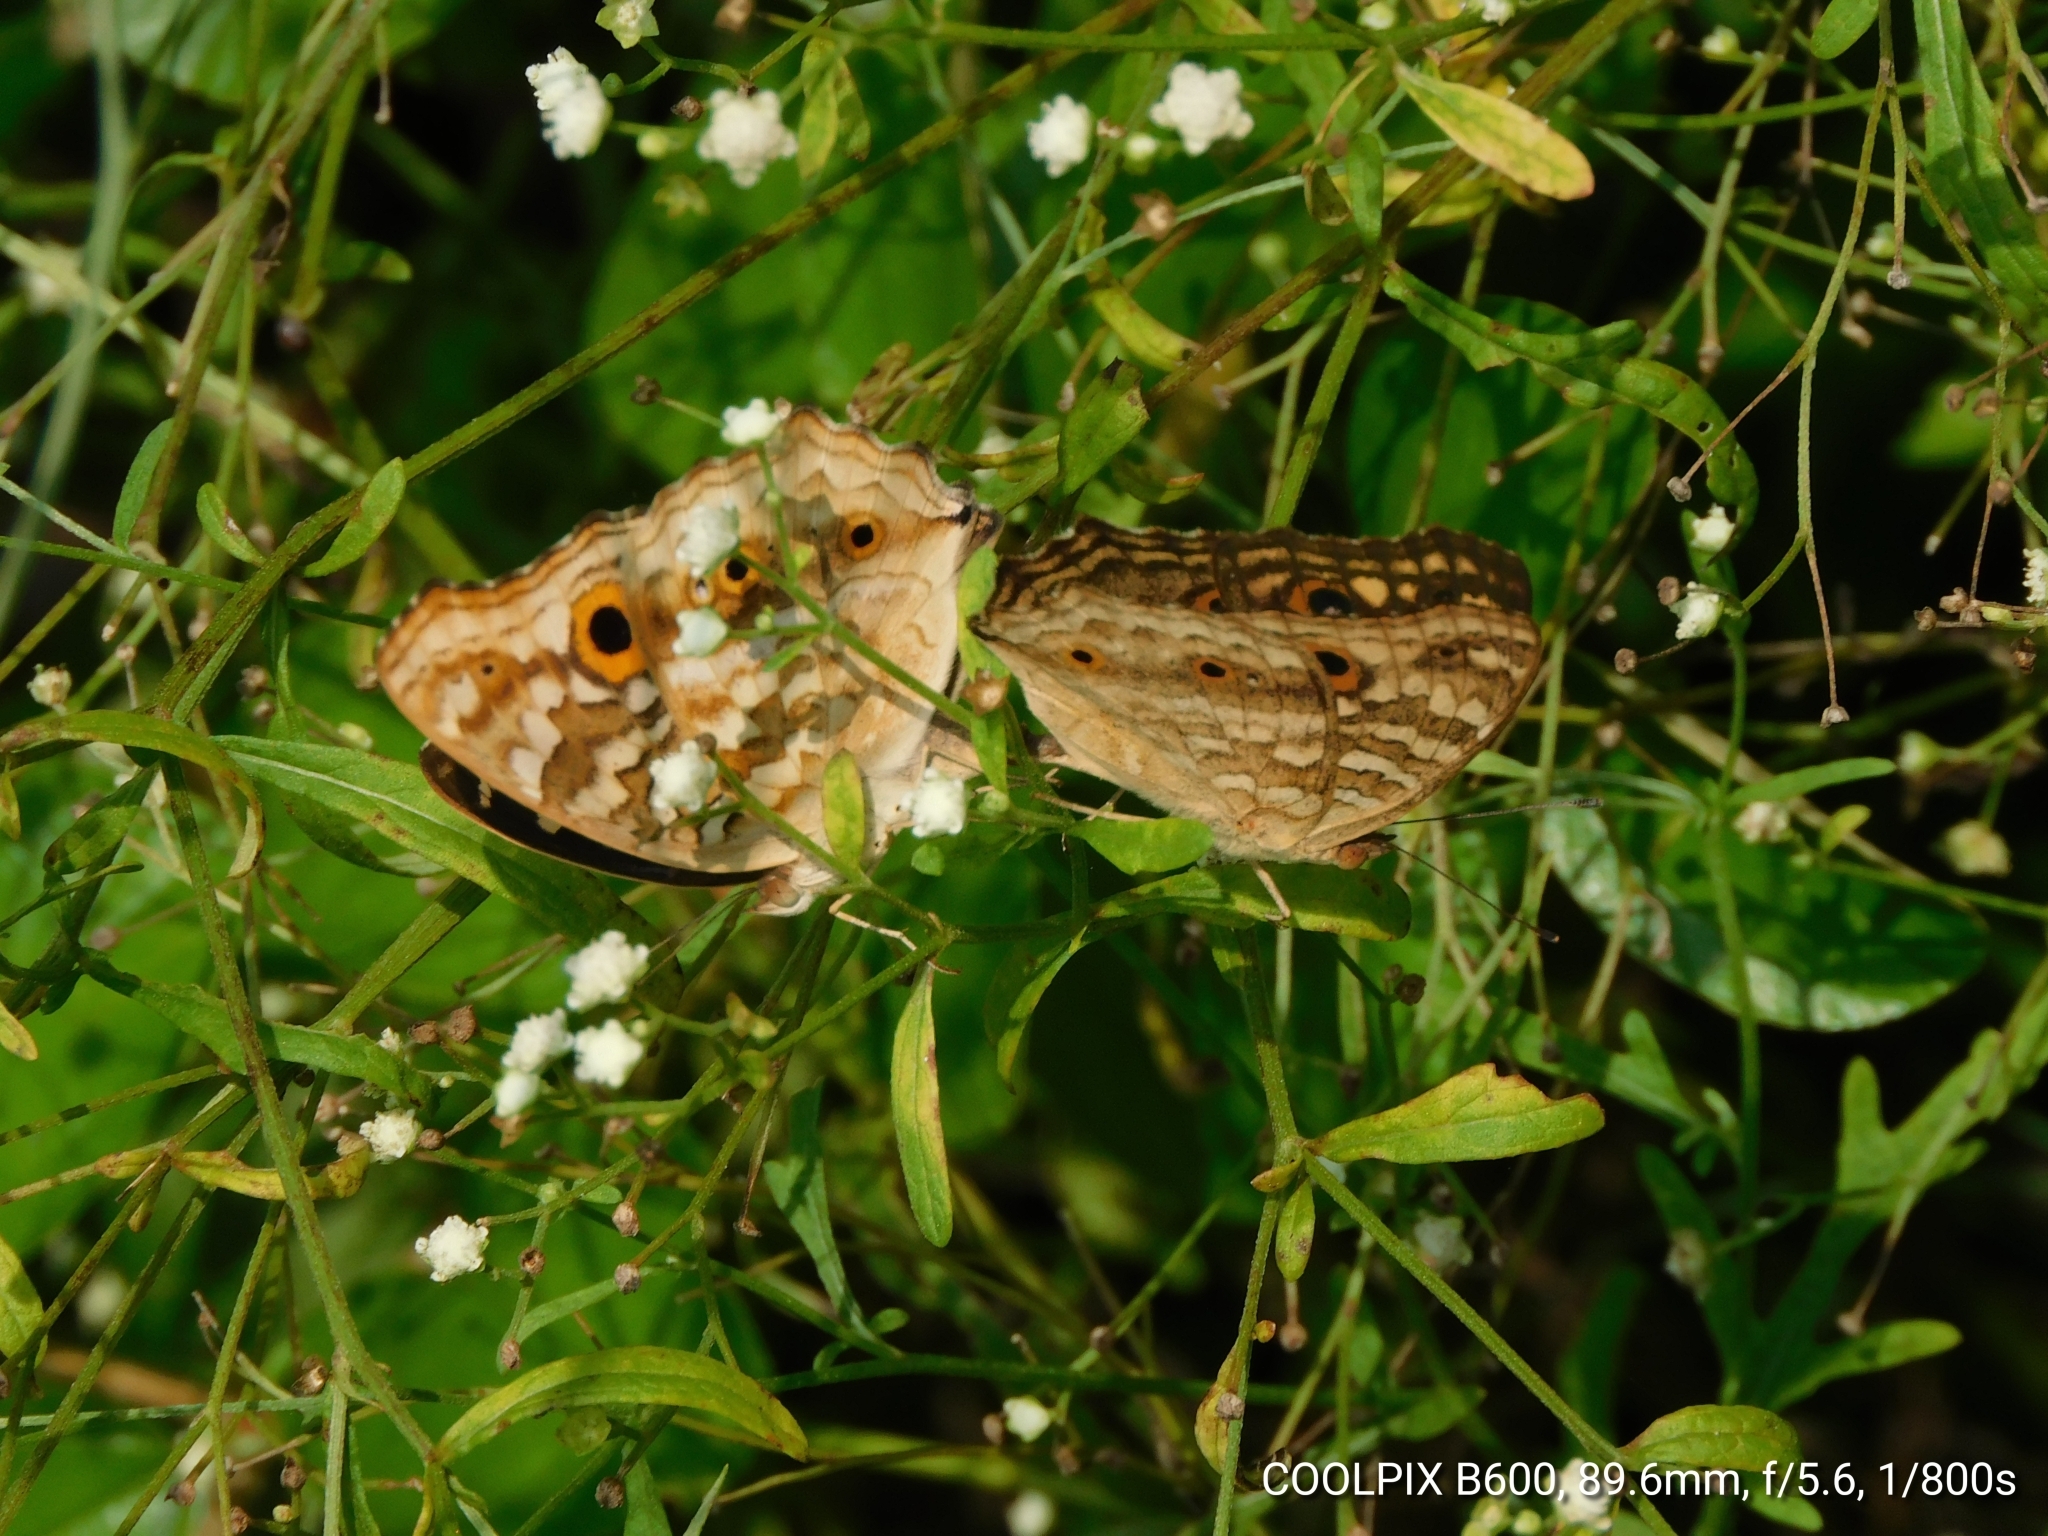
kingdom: Animalia
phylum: Arthropoda
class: Insecta
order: Lepidoptera
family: Nymphalidae
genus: Junonia
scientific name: Junonia lemonias
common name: Lemon pansy
